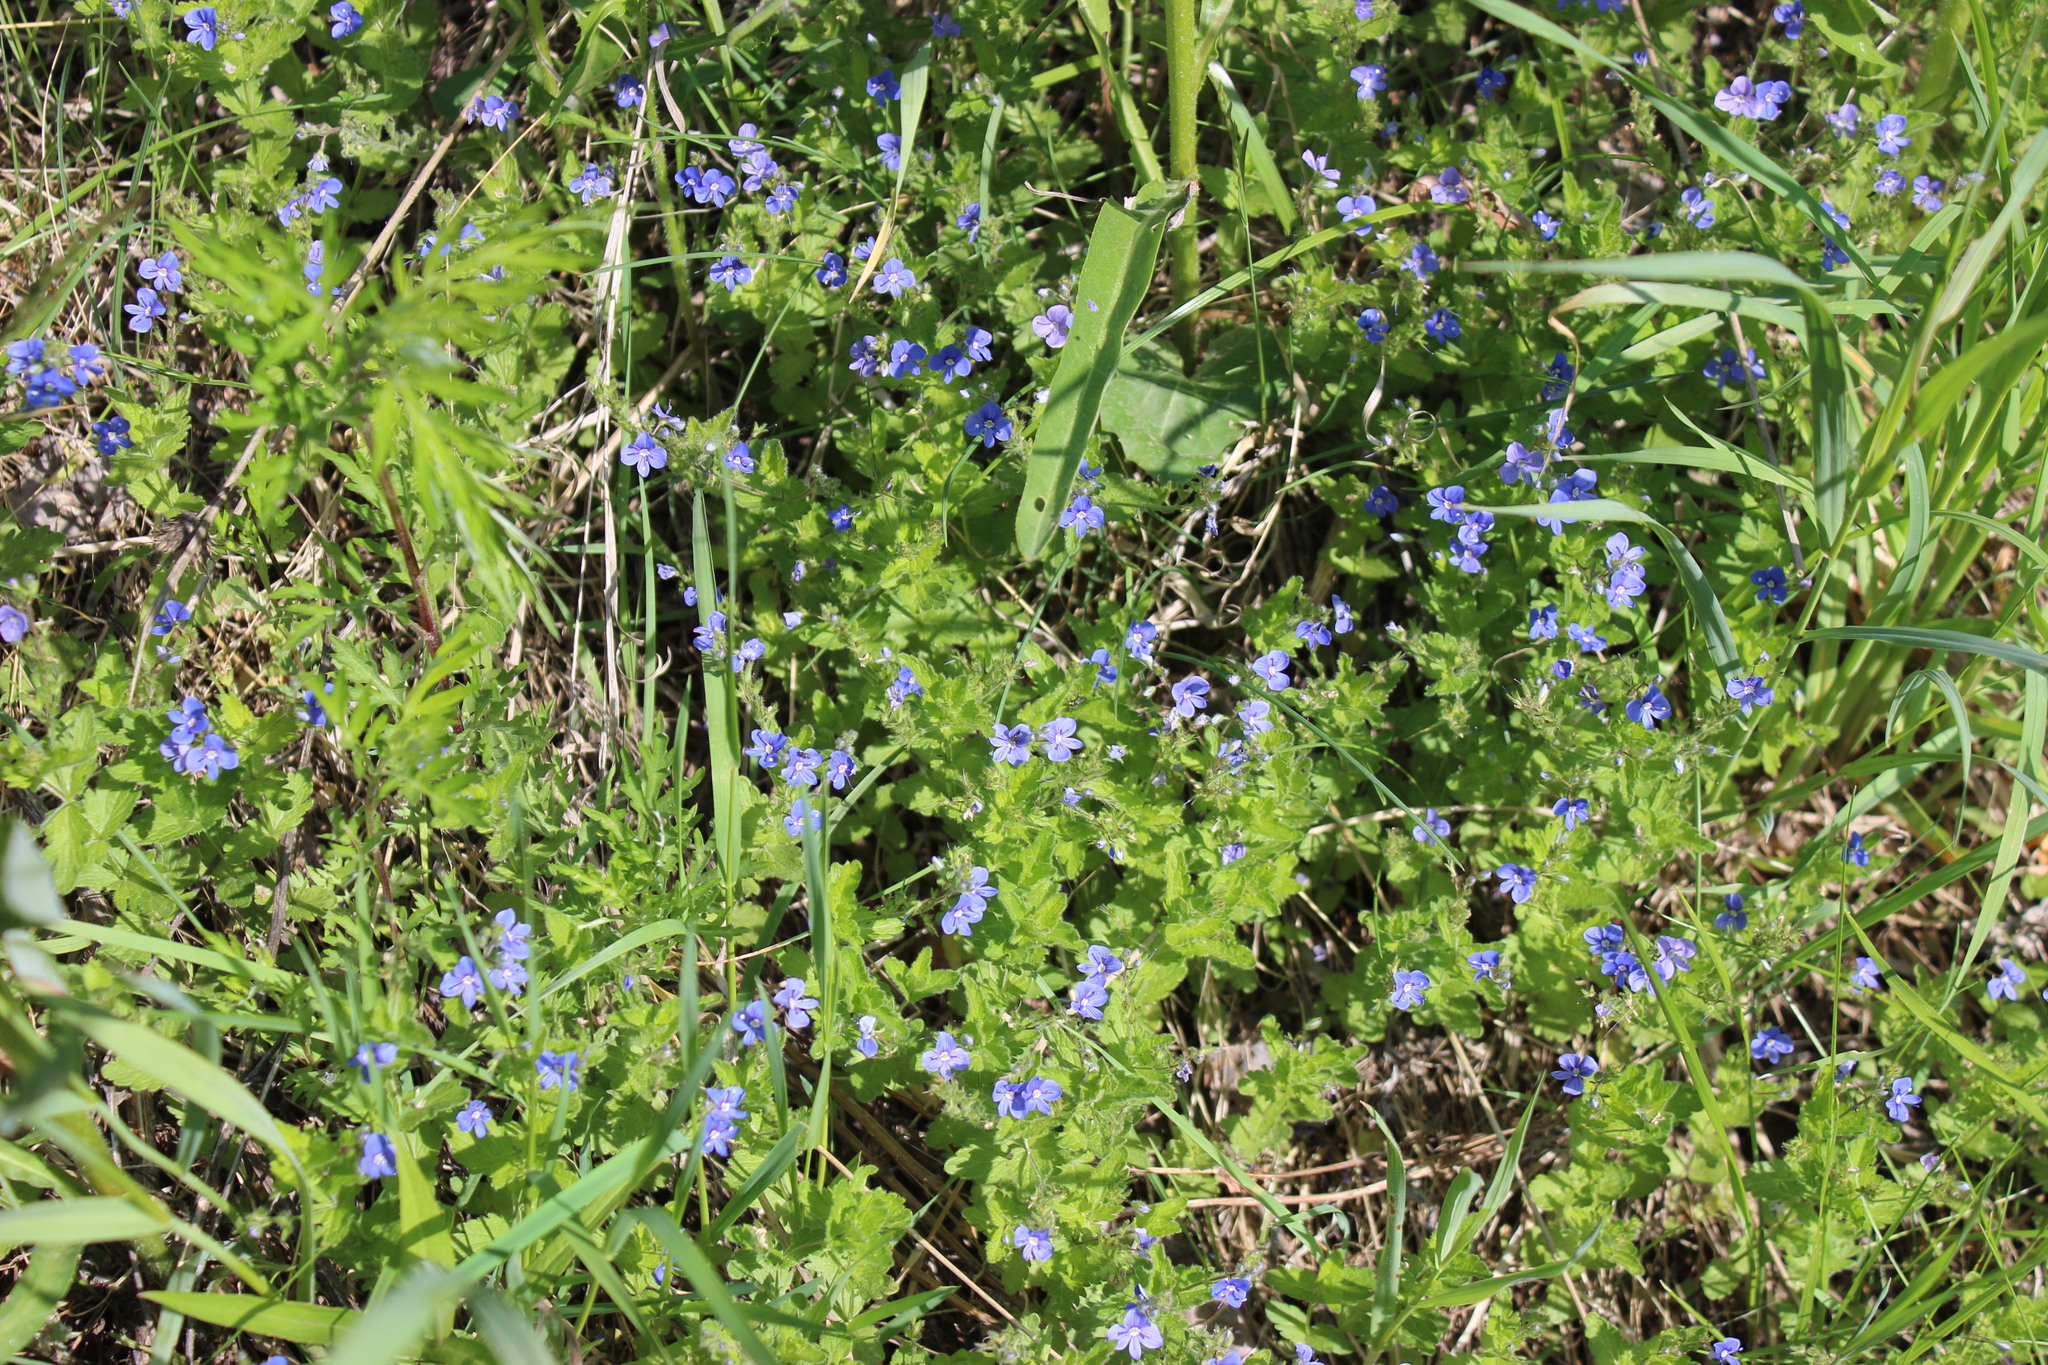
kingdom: Plantae
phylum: Tracheophyta
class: Magnoliopsida
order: Lamiales
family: Plantaginaceae
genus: Veronica
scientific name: Veronica chamaedrys
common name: Germander speedwell
